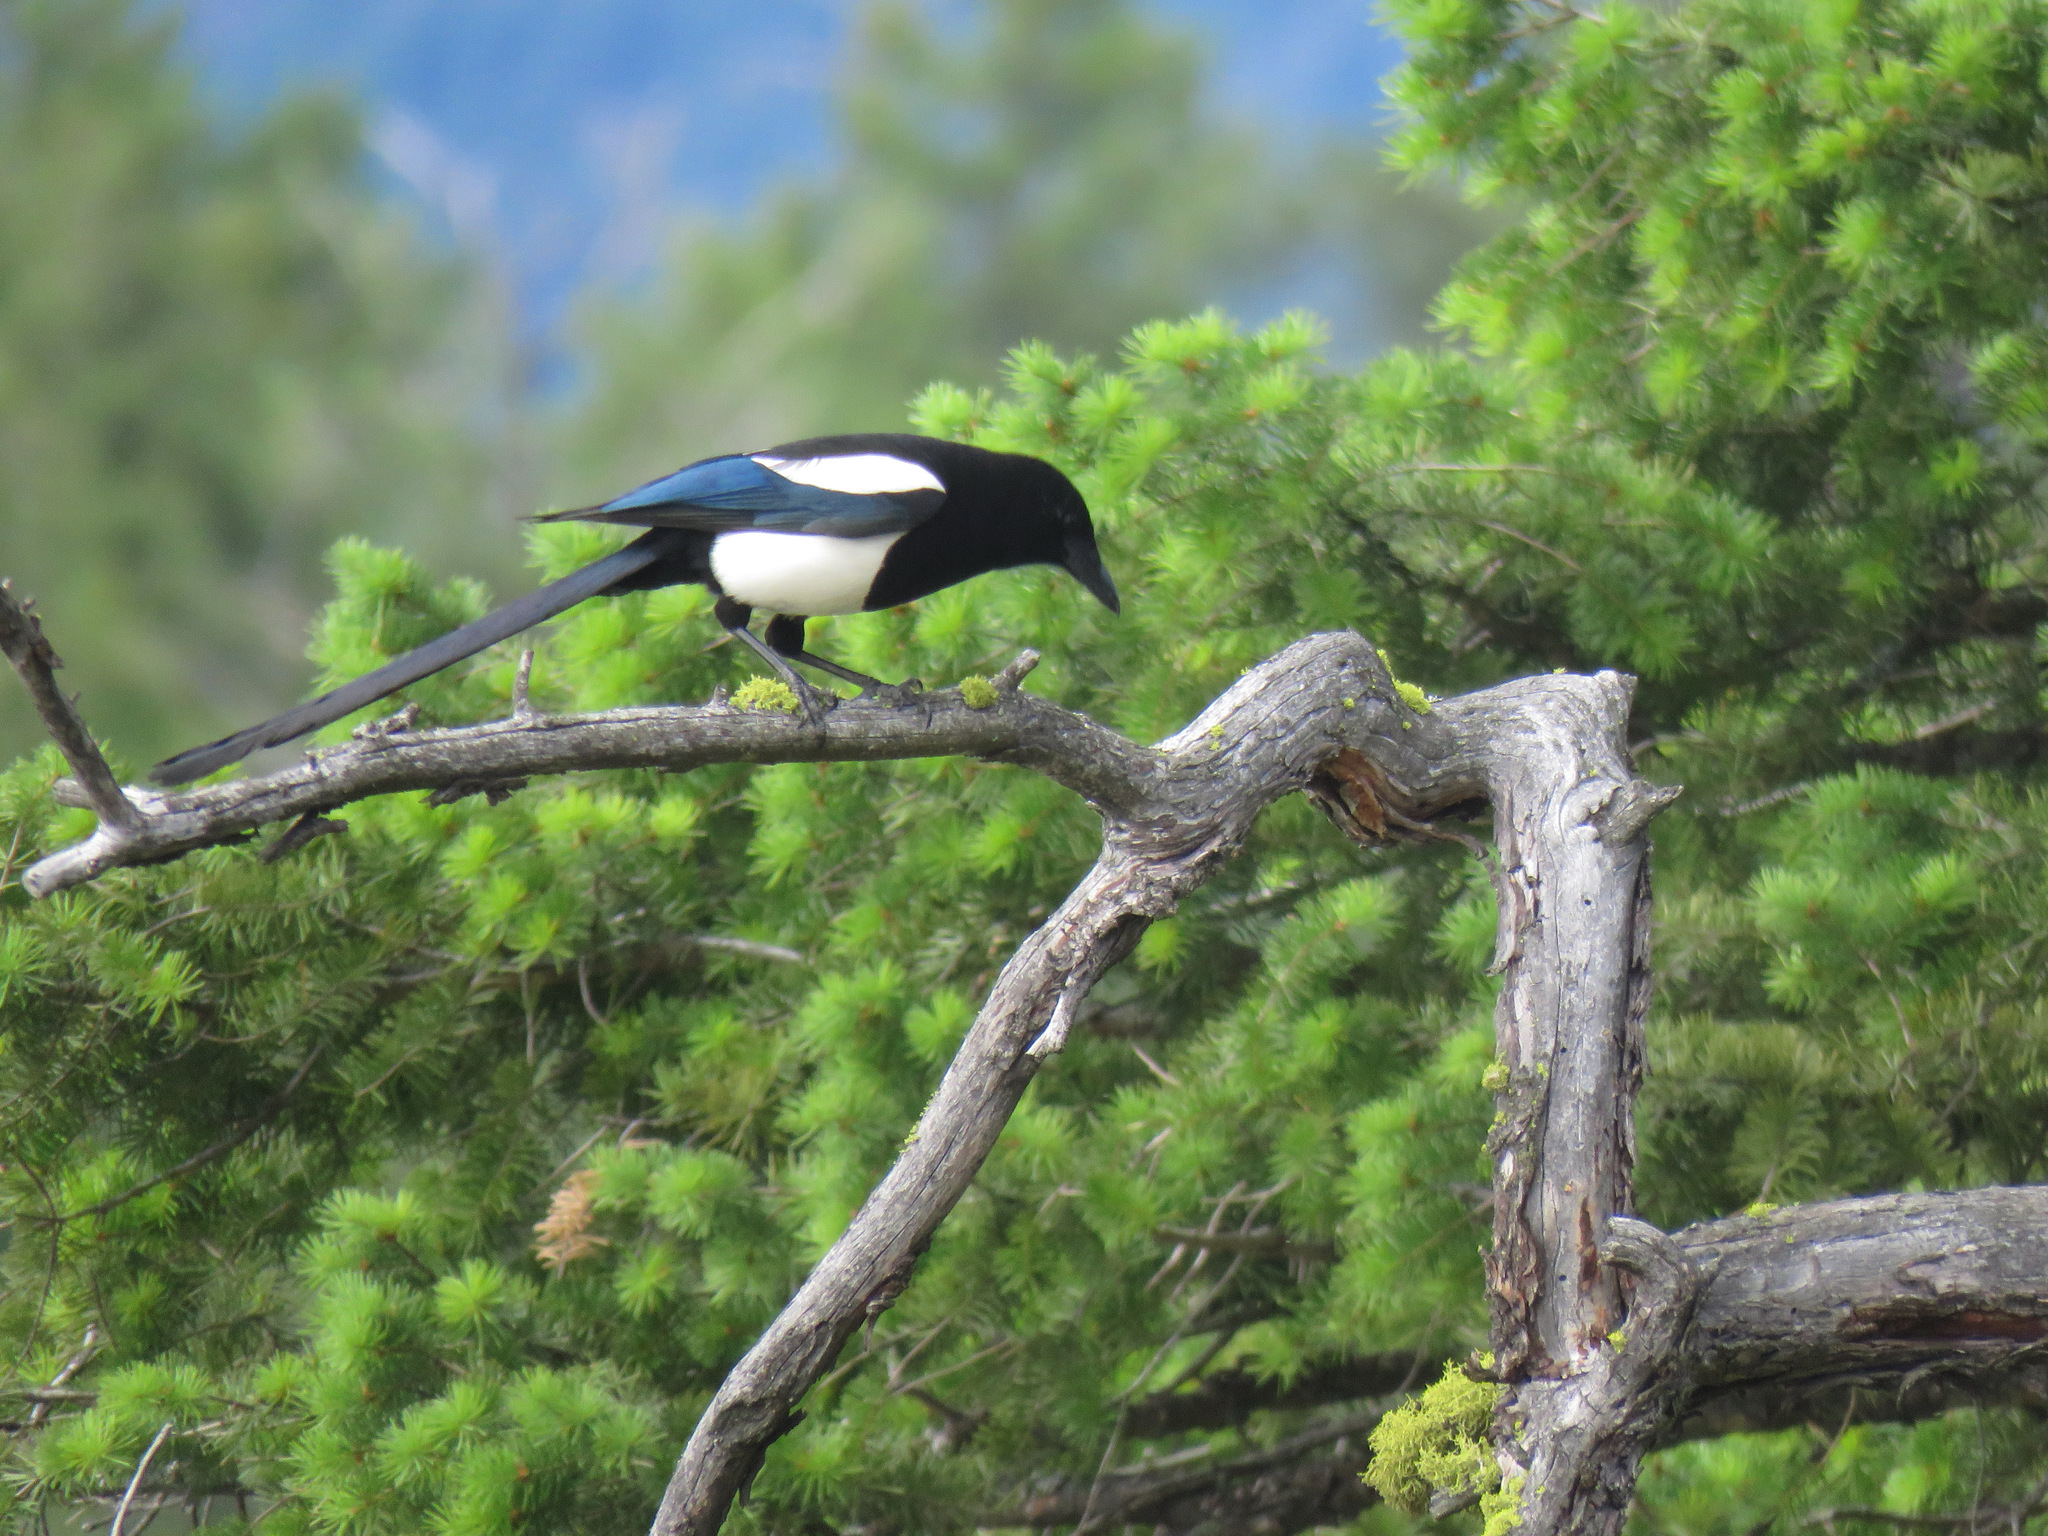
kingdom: Animalia
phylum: Chordata
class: Aves
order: Passeriformes
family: Corvidae
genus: Pica
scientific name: Pica hudsonia
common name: Black-billed magpie
